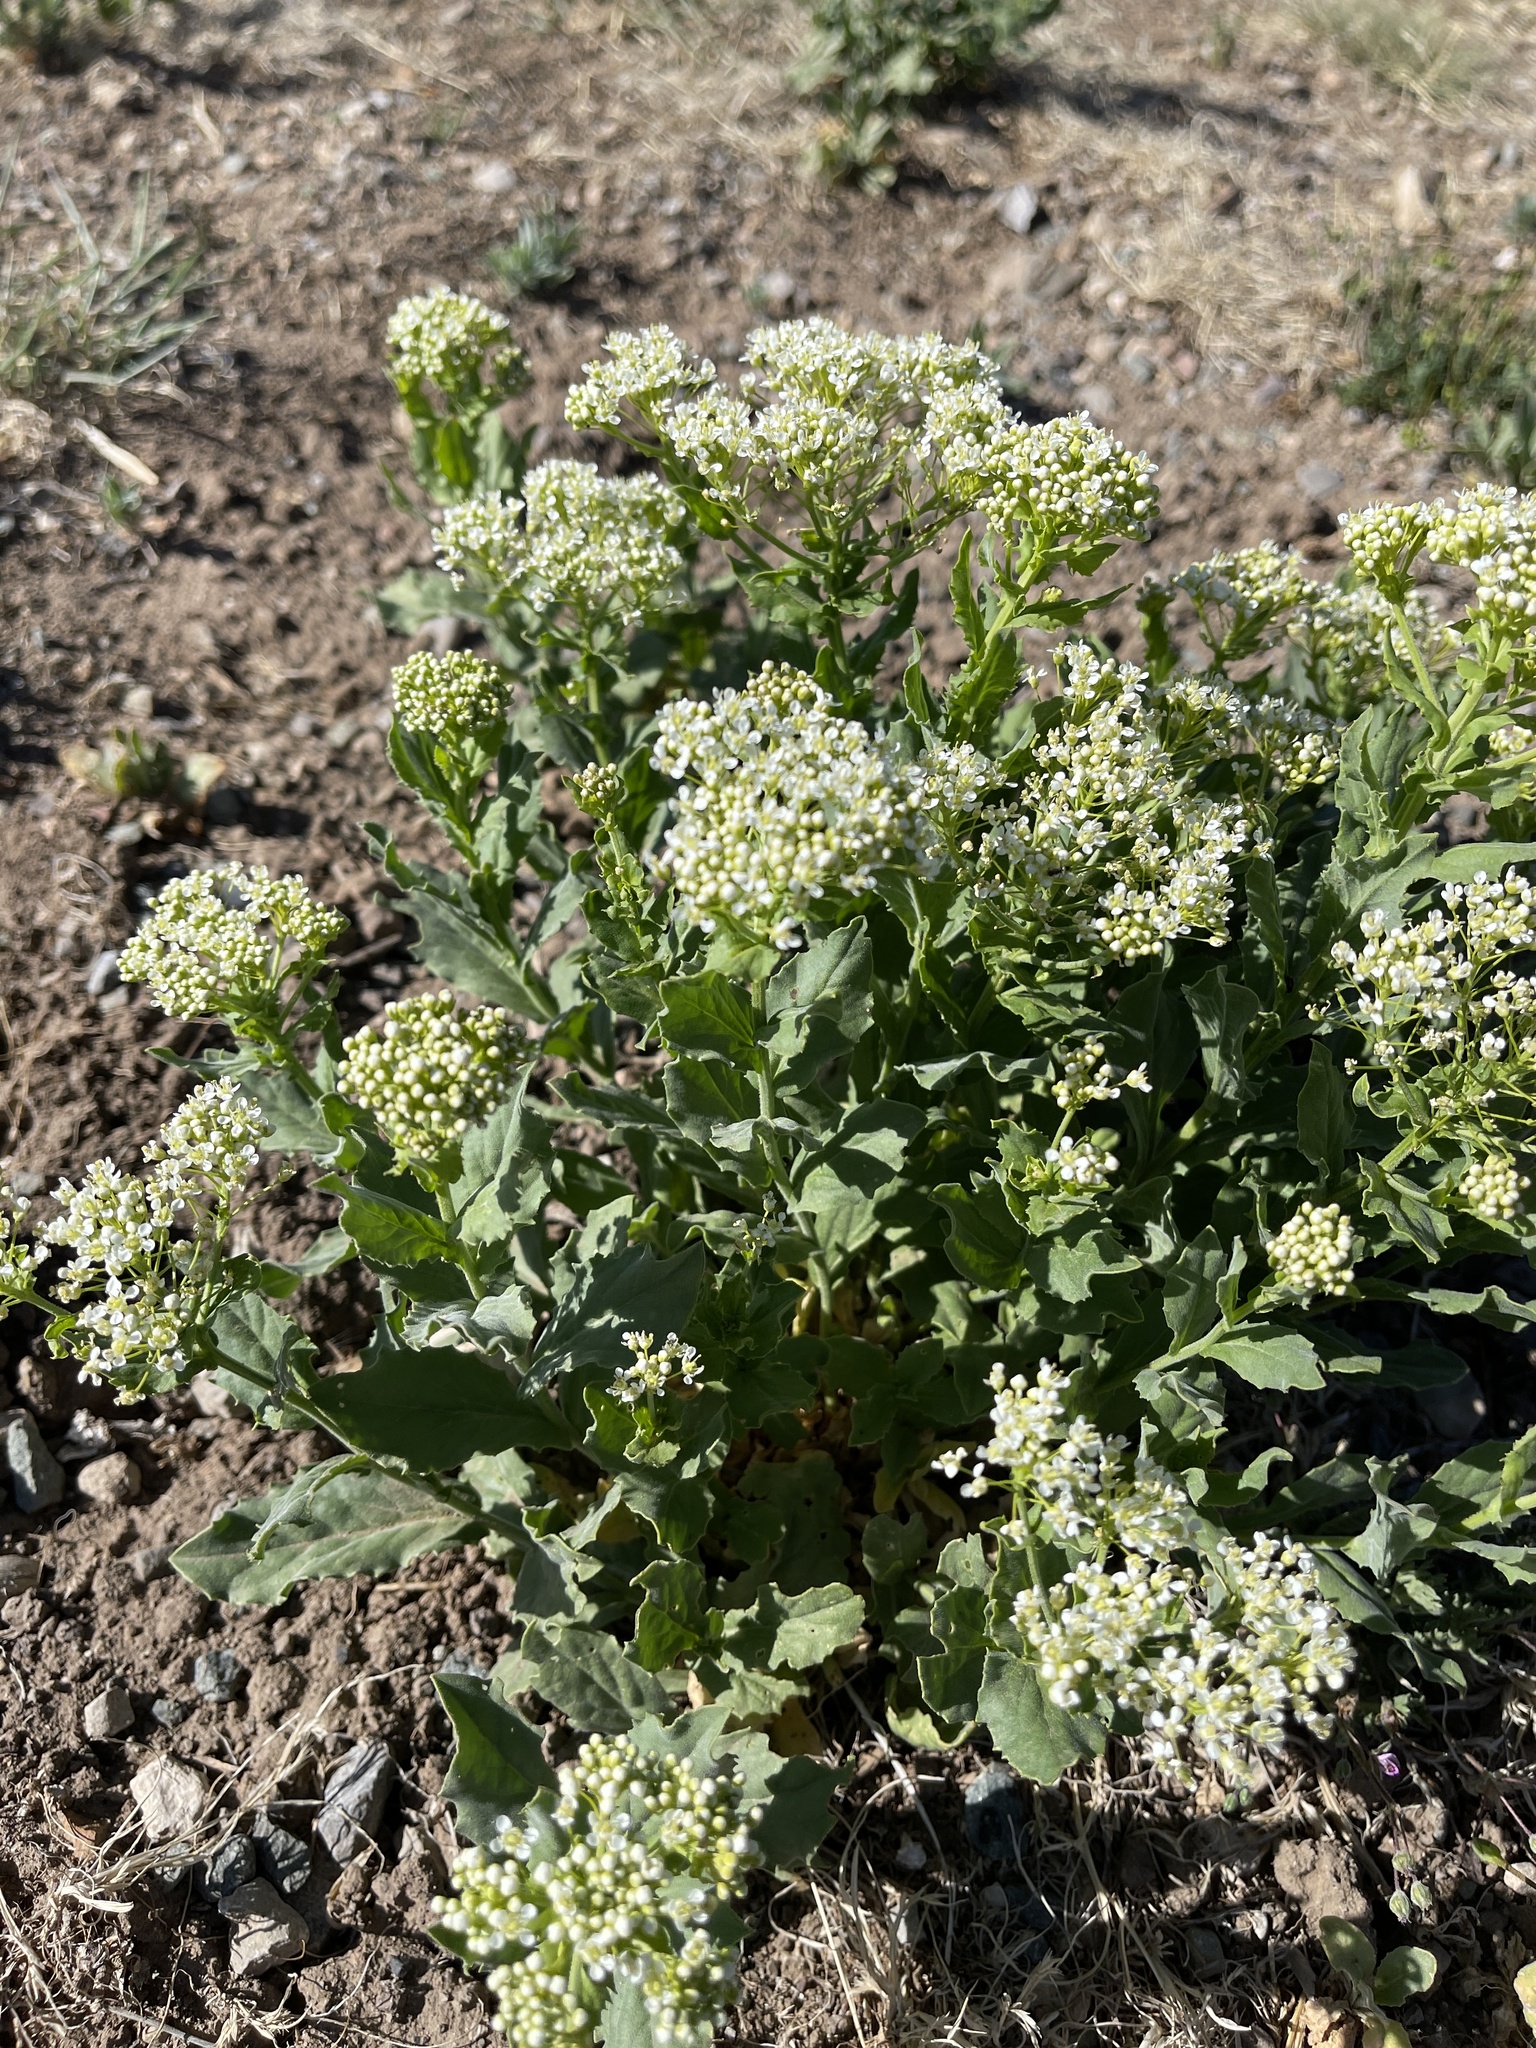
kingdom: Plantae
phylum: Tracheophyta
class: Magnoliopsida
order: Brassicales
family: Brassicaceae
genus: Lepidium
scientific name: Lepidium
